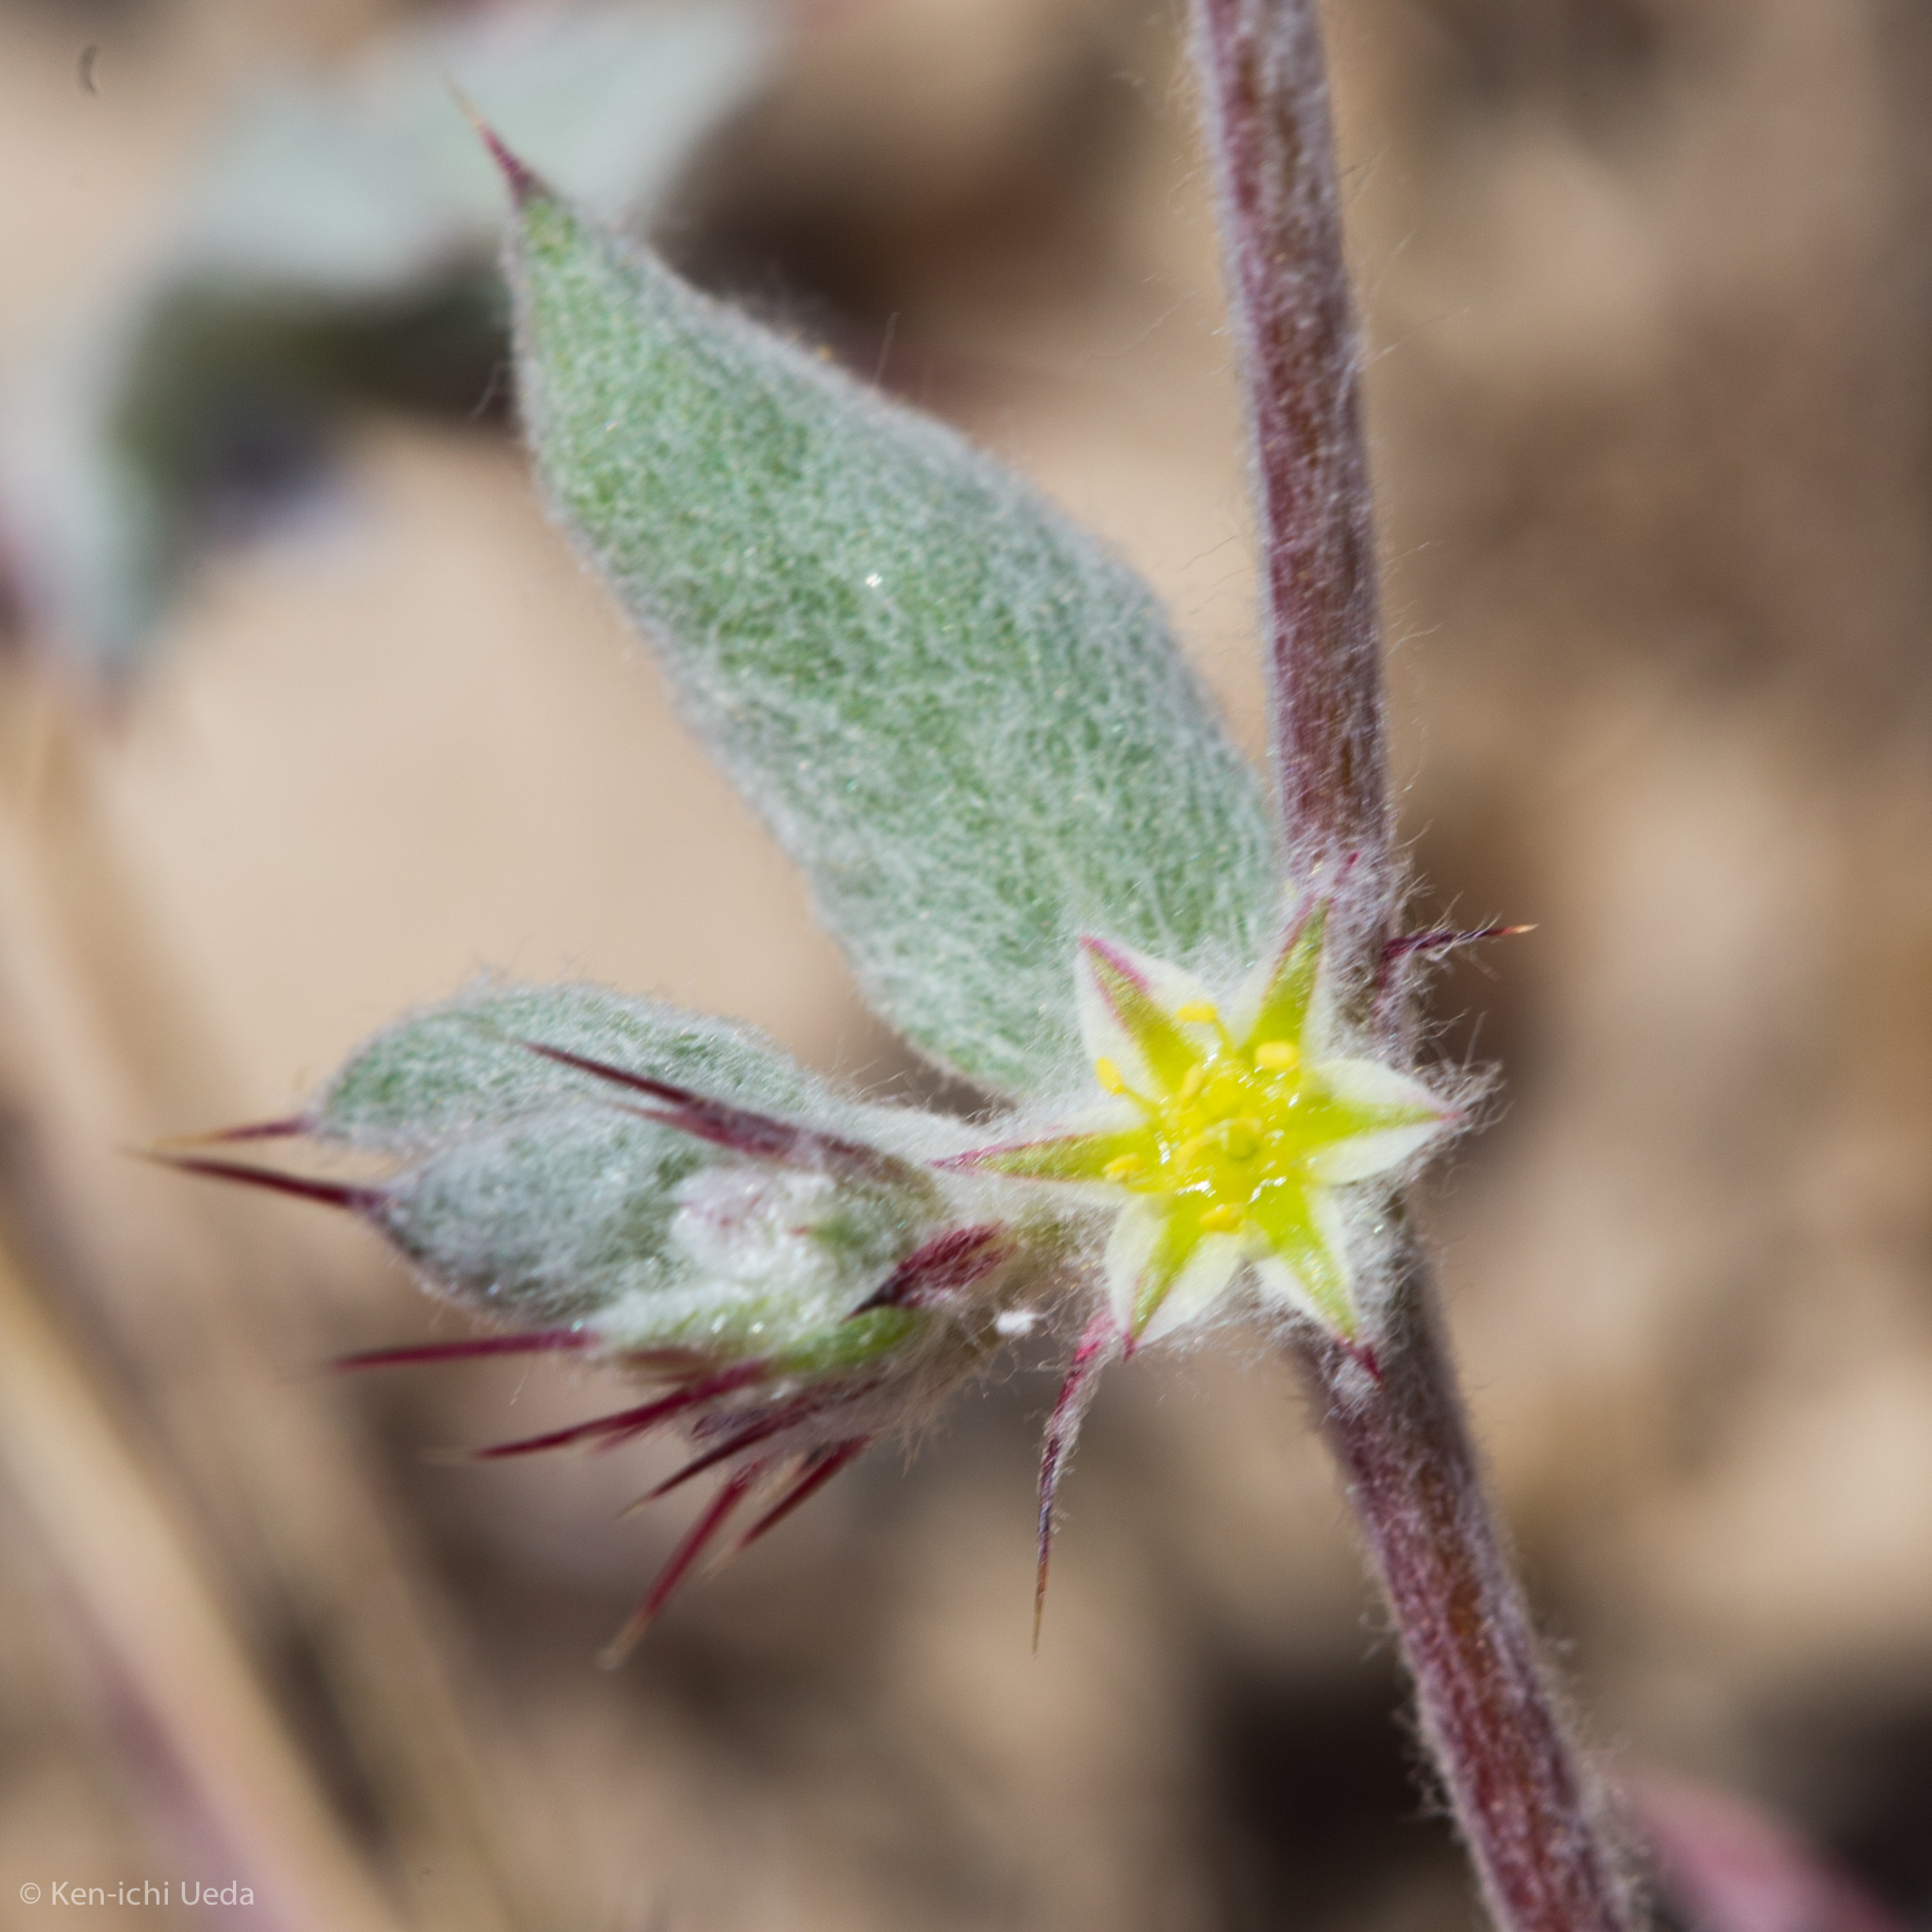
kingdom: Plantae
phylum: Tracheophyta
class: Magnoliopsida
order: Caryophyllales
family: Polygonaceae
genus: Hollisteria
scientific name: Hollisteria lanata
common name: False spike-flower
